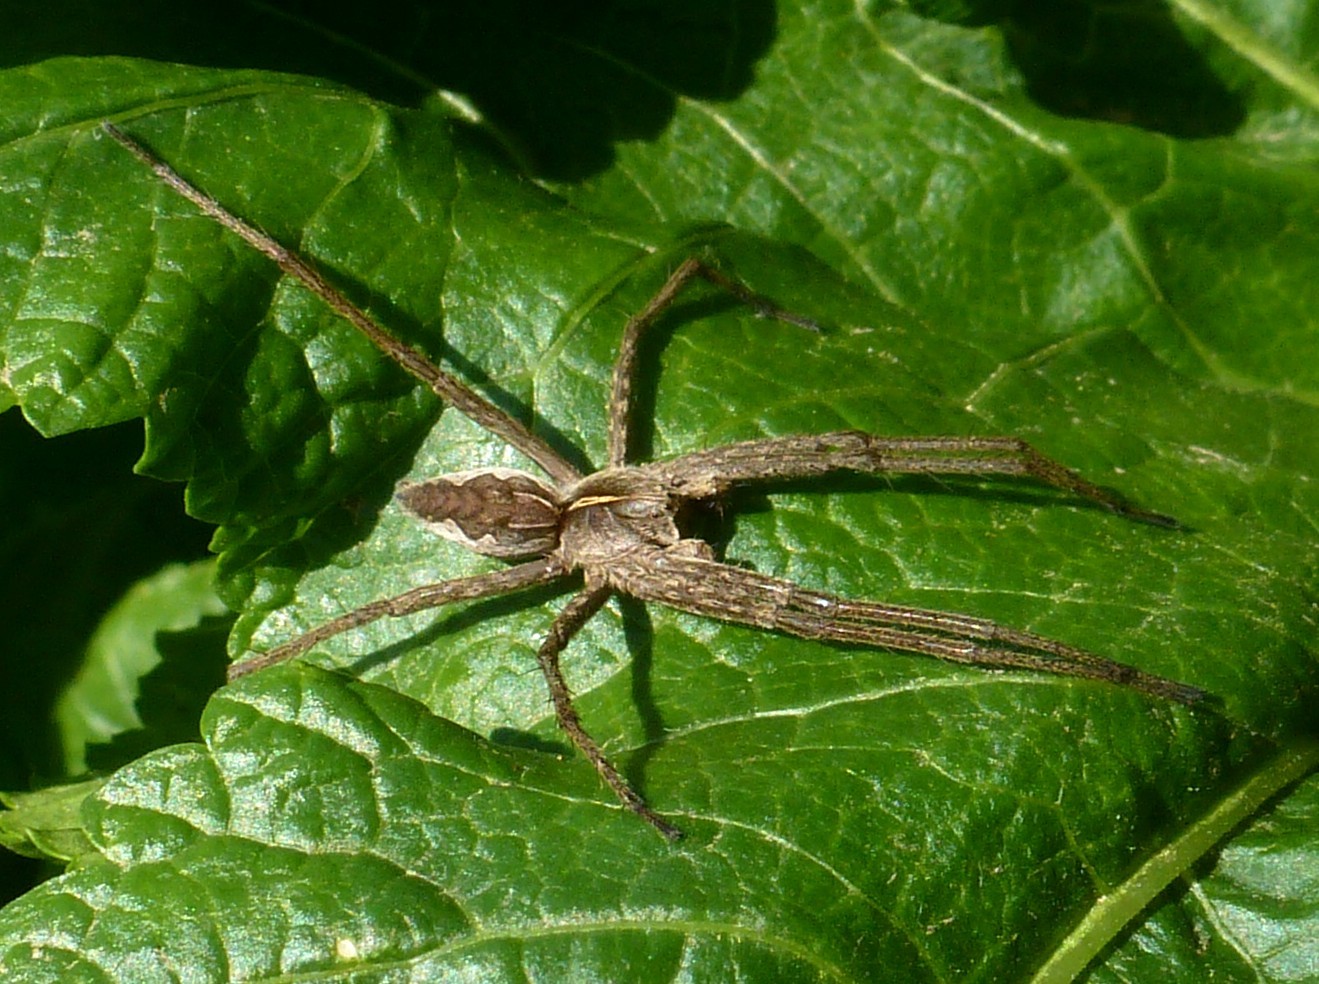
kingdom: Animalia
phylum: Arthropoda
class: Arachnida
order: Araneae
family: Pisauridae
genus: Pisaura
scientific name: Pisaura
